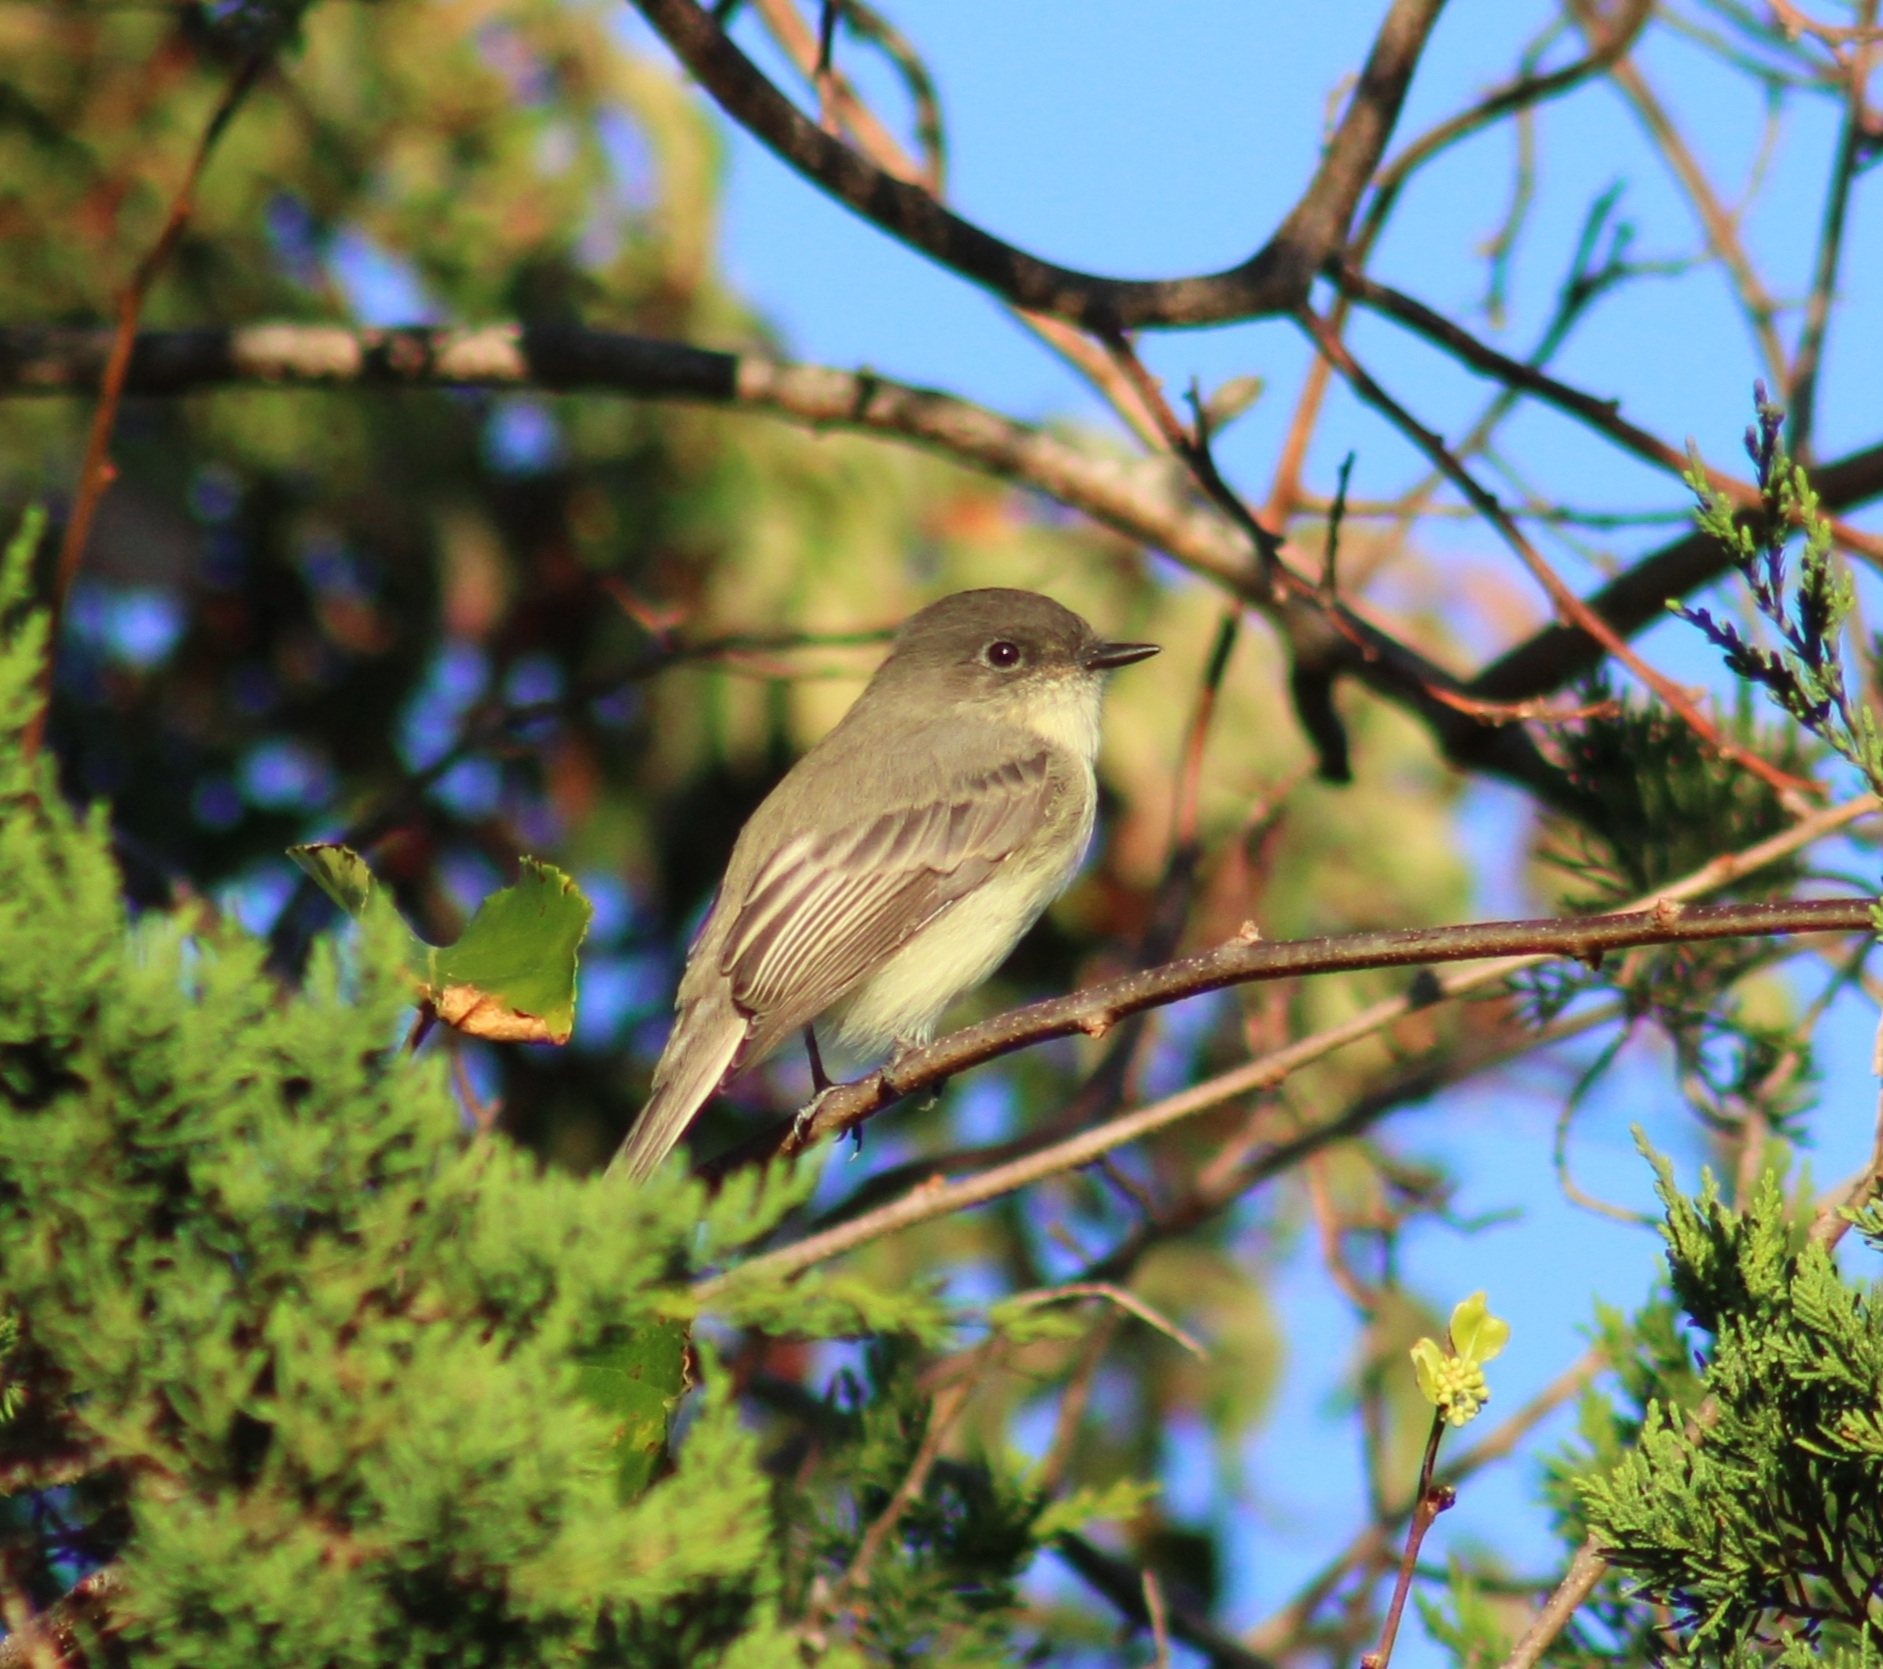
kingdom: Animalia
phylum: Chordata
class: Aves
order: Passeriformes
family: Tyrannidae
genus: Sayornis
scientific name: Sayornis phoebe
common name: Eastern phoebe
